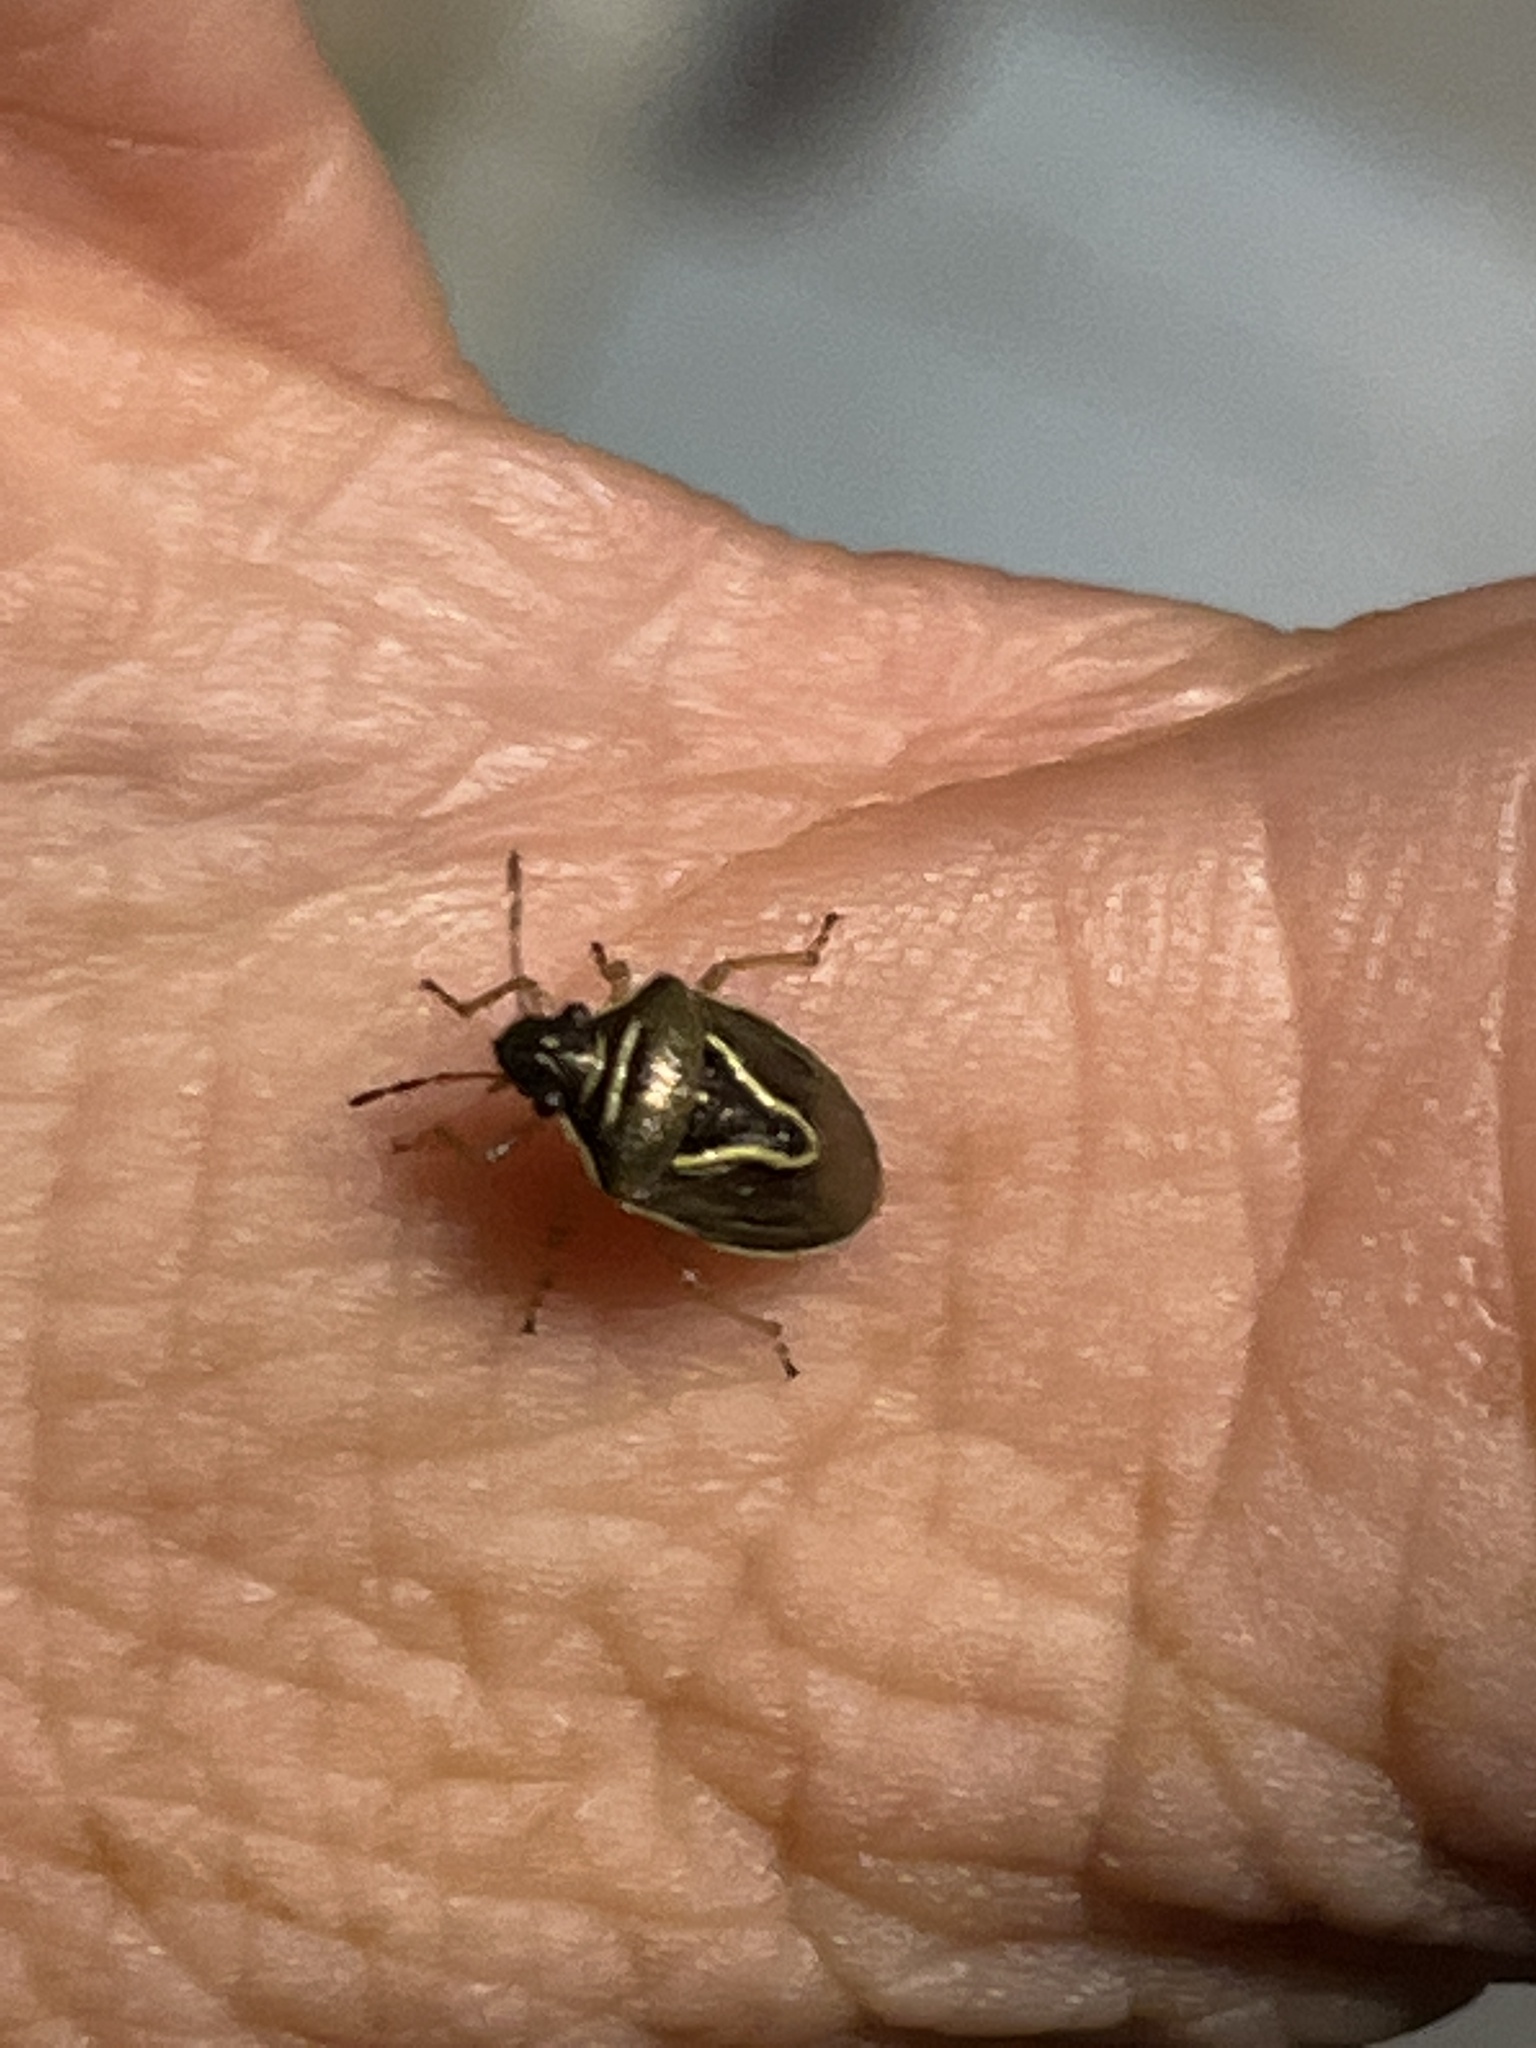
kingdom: Animalia
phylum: Arthropoda
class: Insecta
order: Hemiptera
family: Pentatomidae
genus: Mormidea
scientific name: Mormidea lugens
